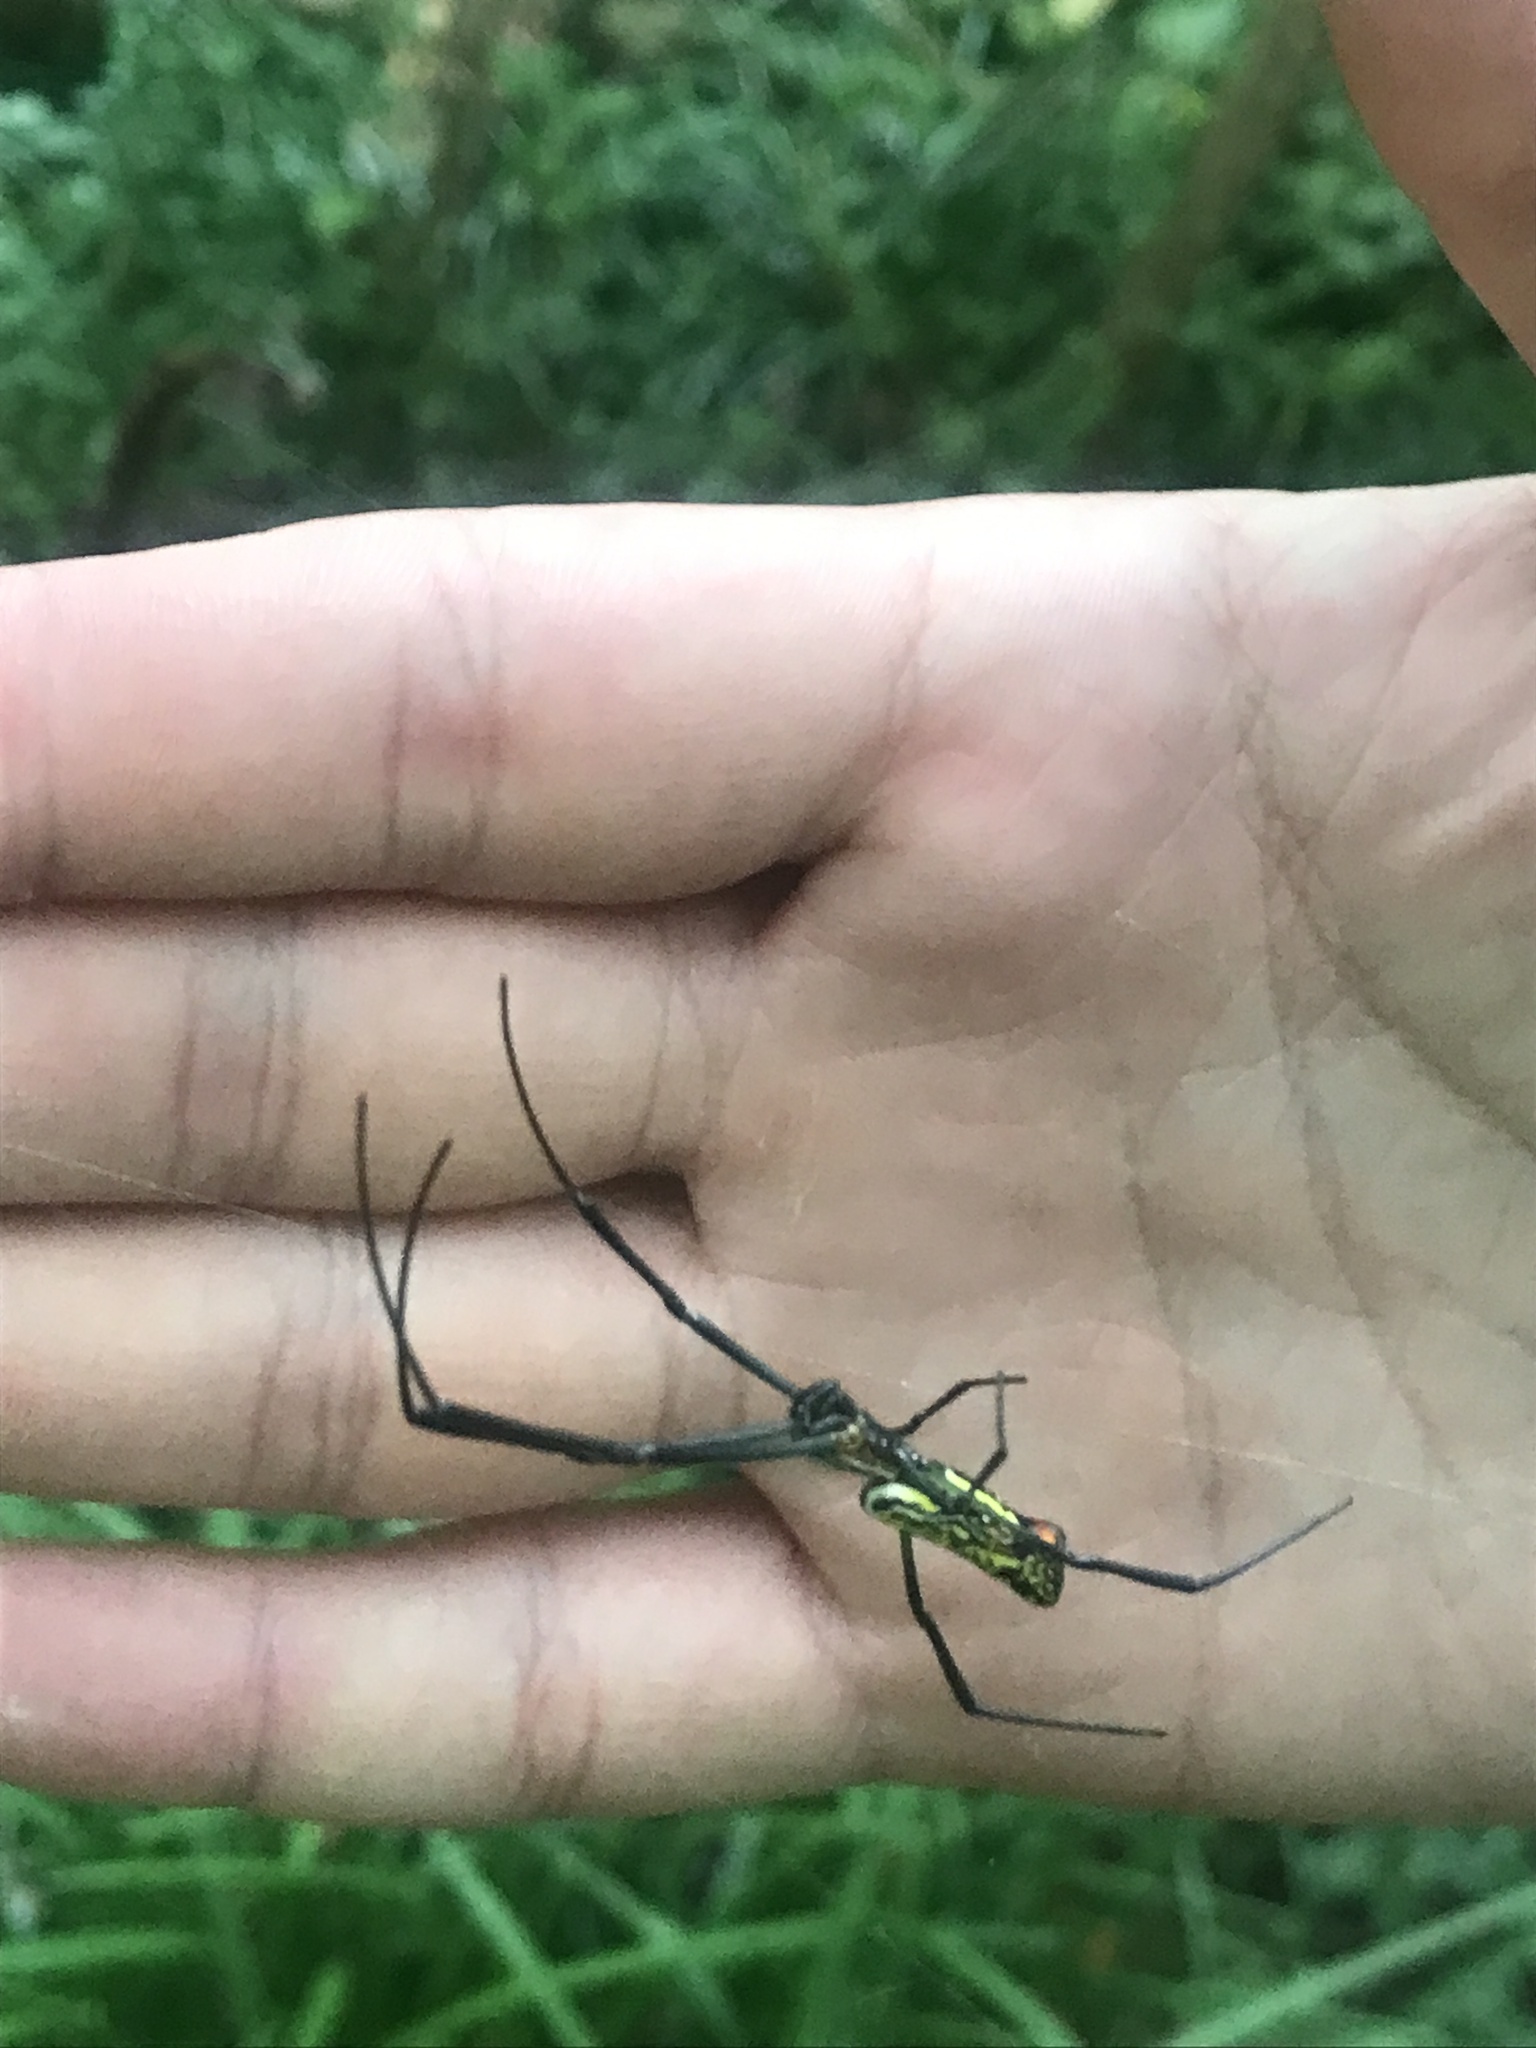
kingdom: Animalia
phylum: Arthropoda
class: Arachnida
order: Araneae
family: Araneidae
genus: Trichonephila
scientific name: Trichonephila clavata
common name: Jorō spider
